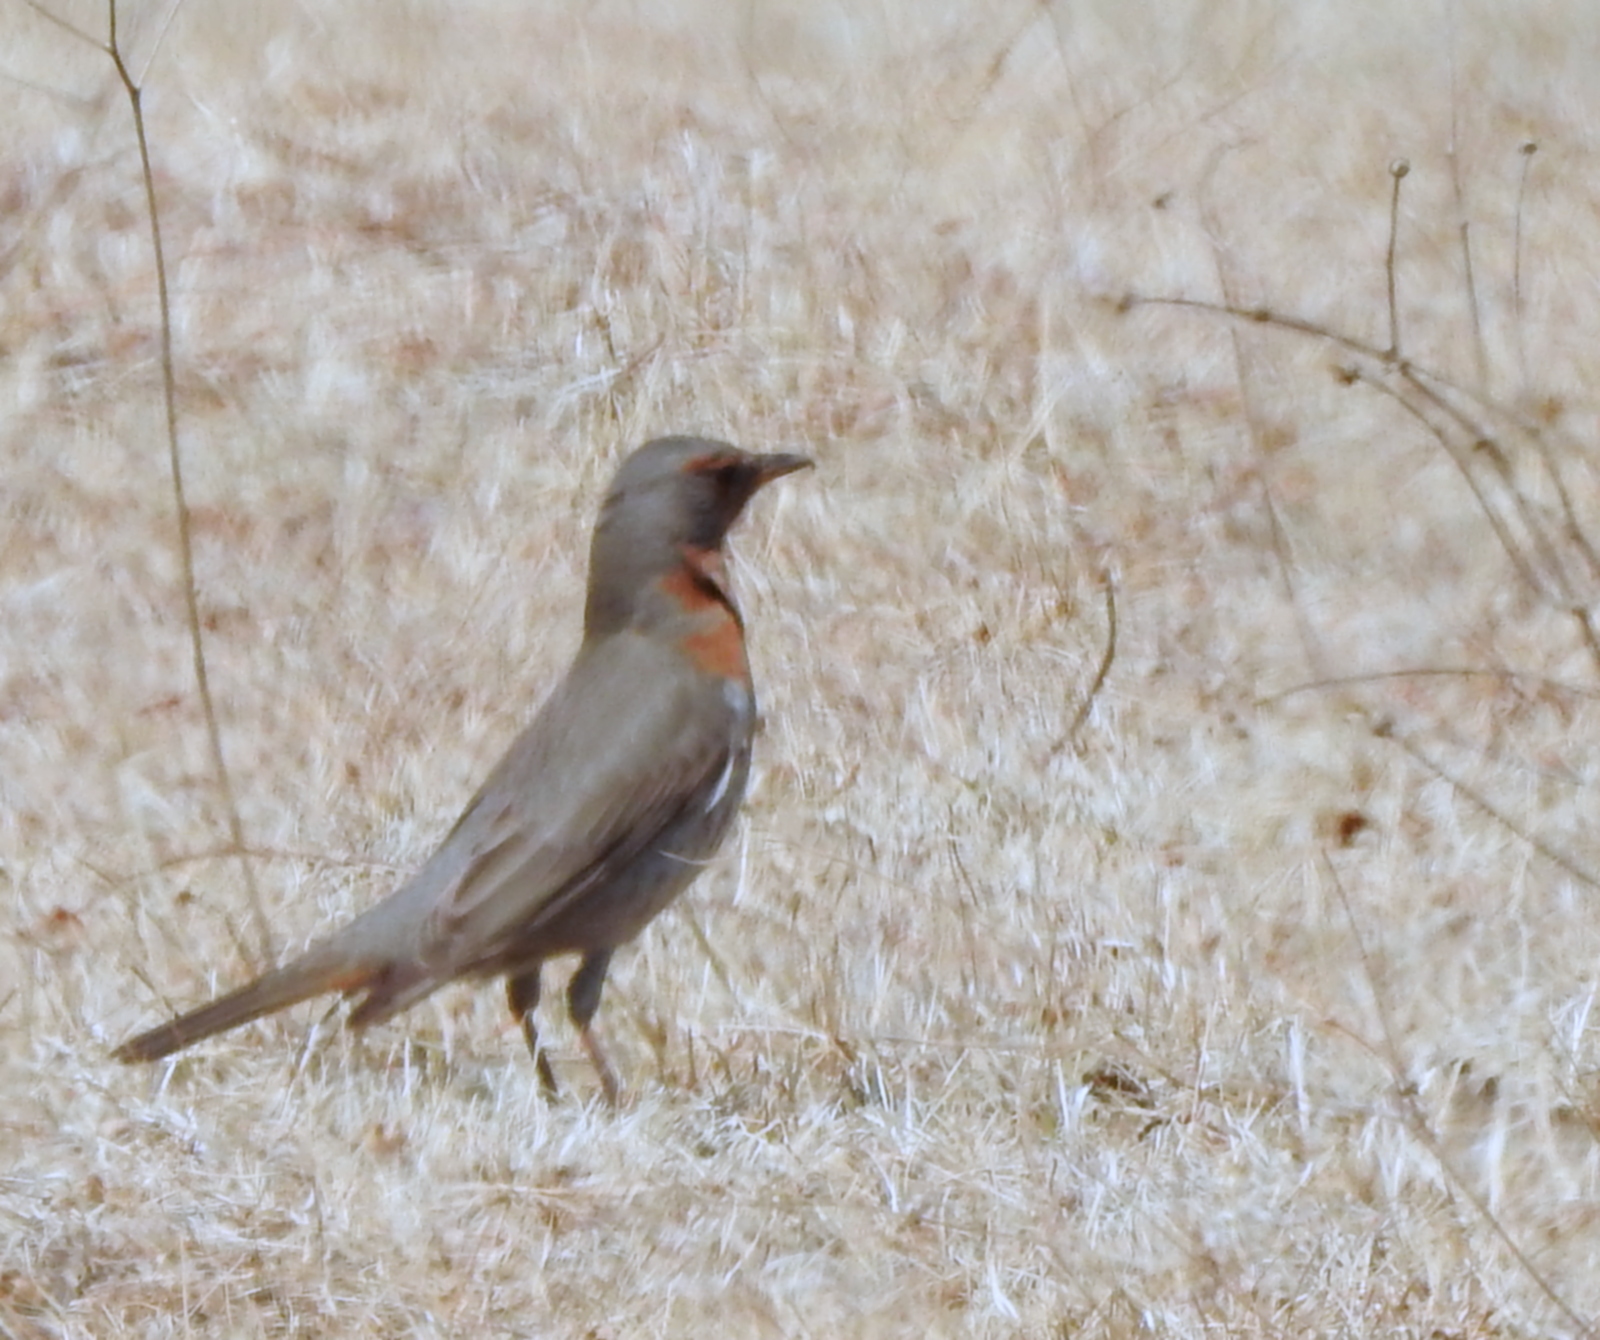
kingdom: Animalia
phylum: Chordata
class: Aves
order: Passeriformes
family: Turdidae
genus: Turdus
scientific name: Turdus ruficollis
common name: Red-throated thrush
